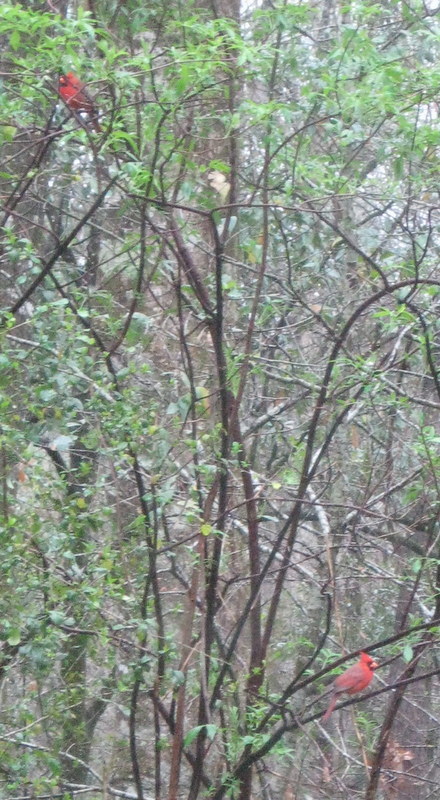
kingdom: Animalia
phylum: Chordata
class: Aves
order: Passeriformes
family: Cardinalidae
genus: Cardinalis
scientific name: Cardinalis cardinalis
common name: Northern cardinal
